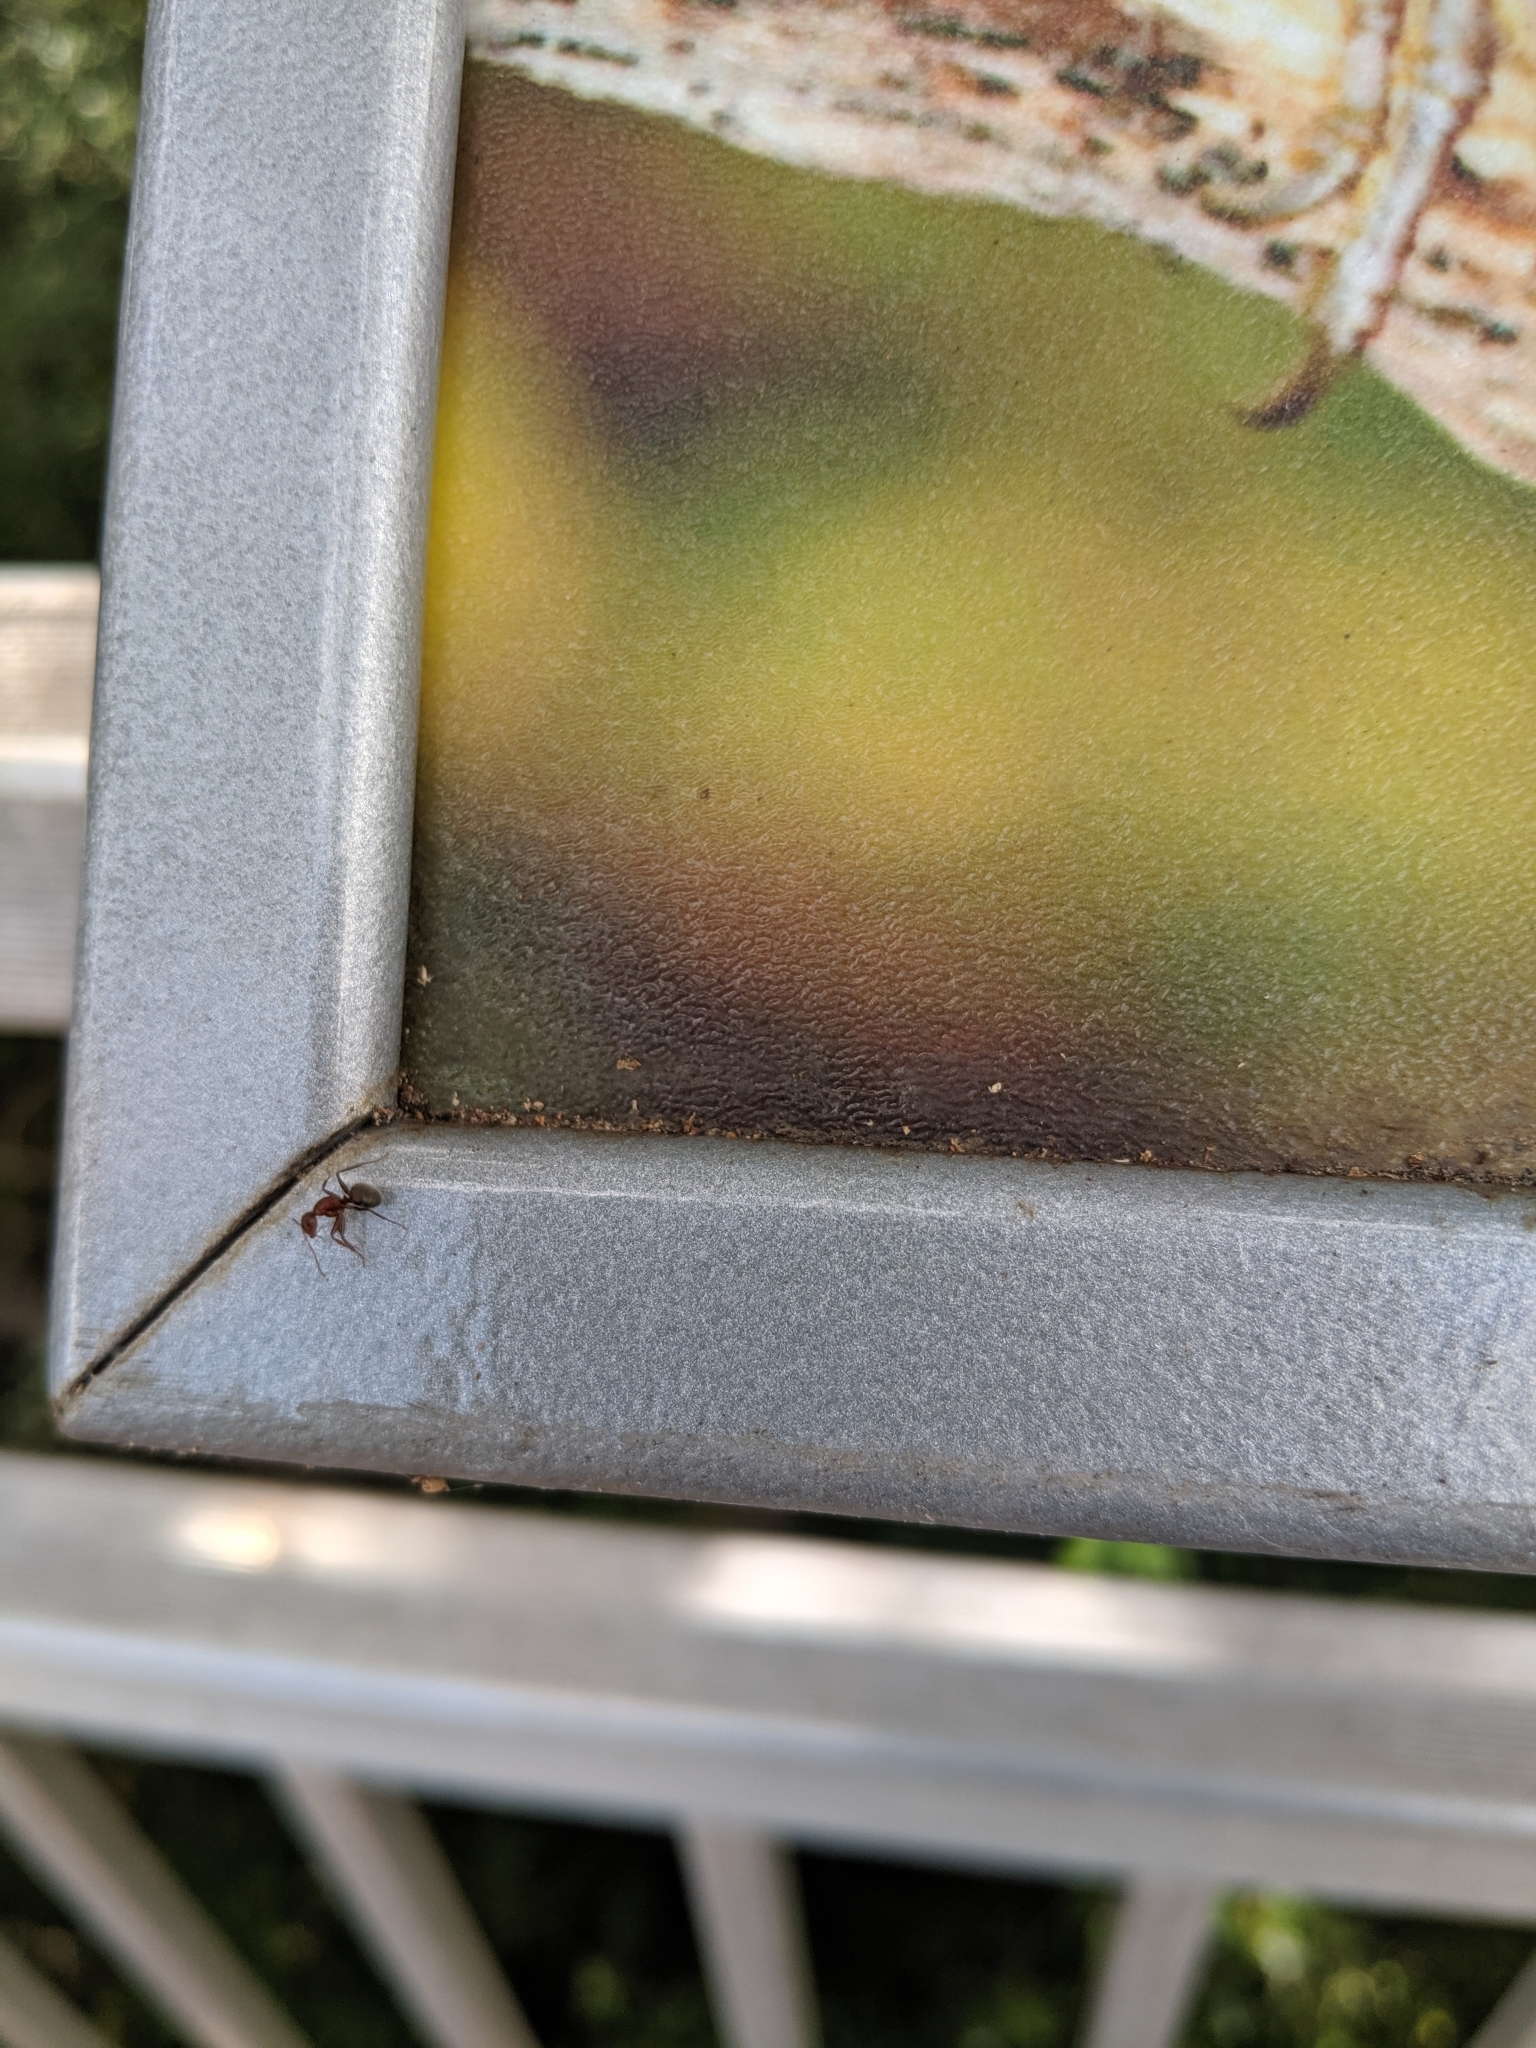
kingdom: Animalia
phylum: Arthropoda
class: Insecta
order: Hymenoptera
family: Formicidae
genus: Camponotus
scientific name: Camponotus planatus
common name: Compact carpenter ant
